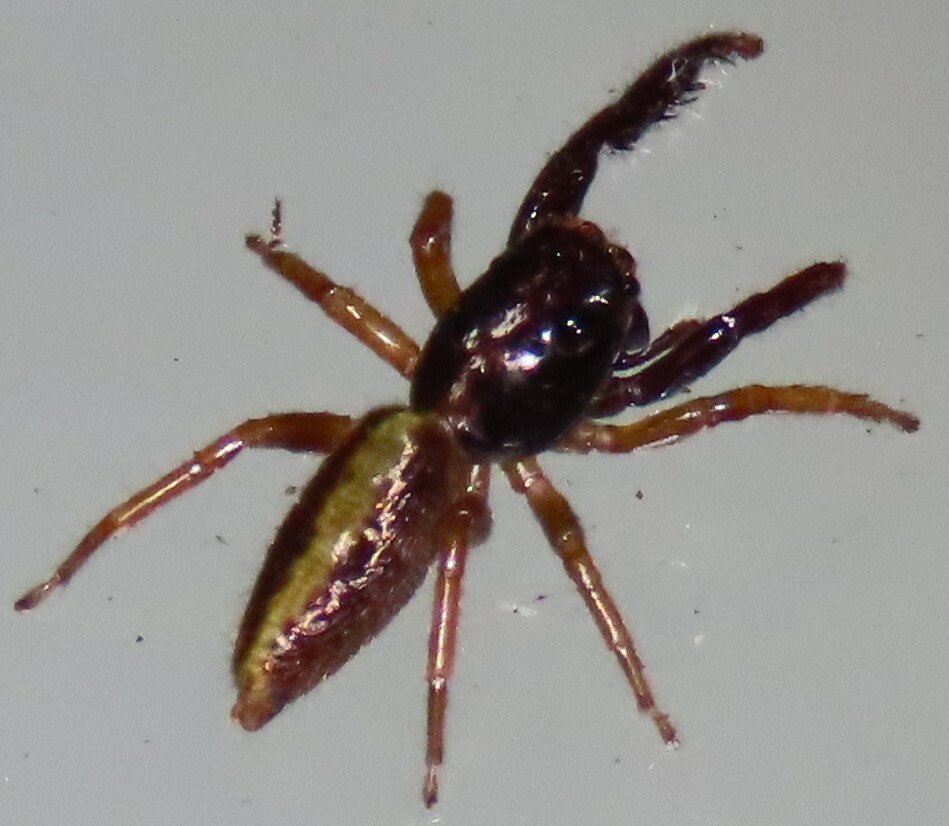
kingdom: Animalia
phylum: Arthropoda
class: Arachnida
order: Araneae
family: Salticidae
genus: Trite
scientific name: Trite planiceps
